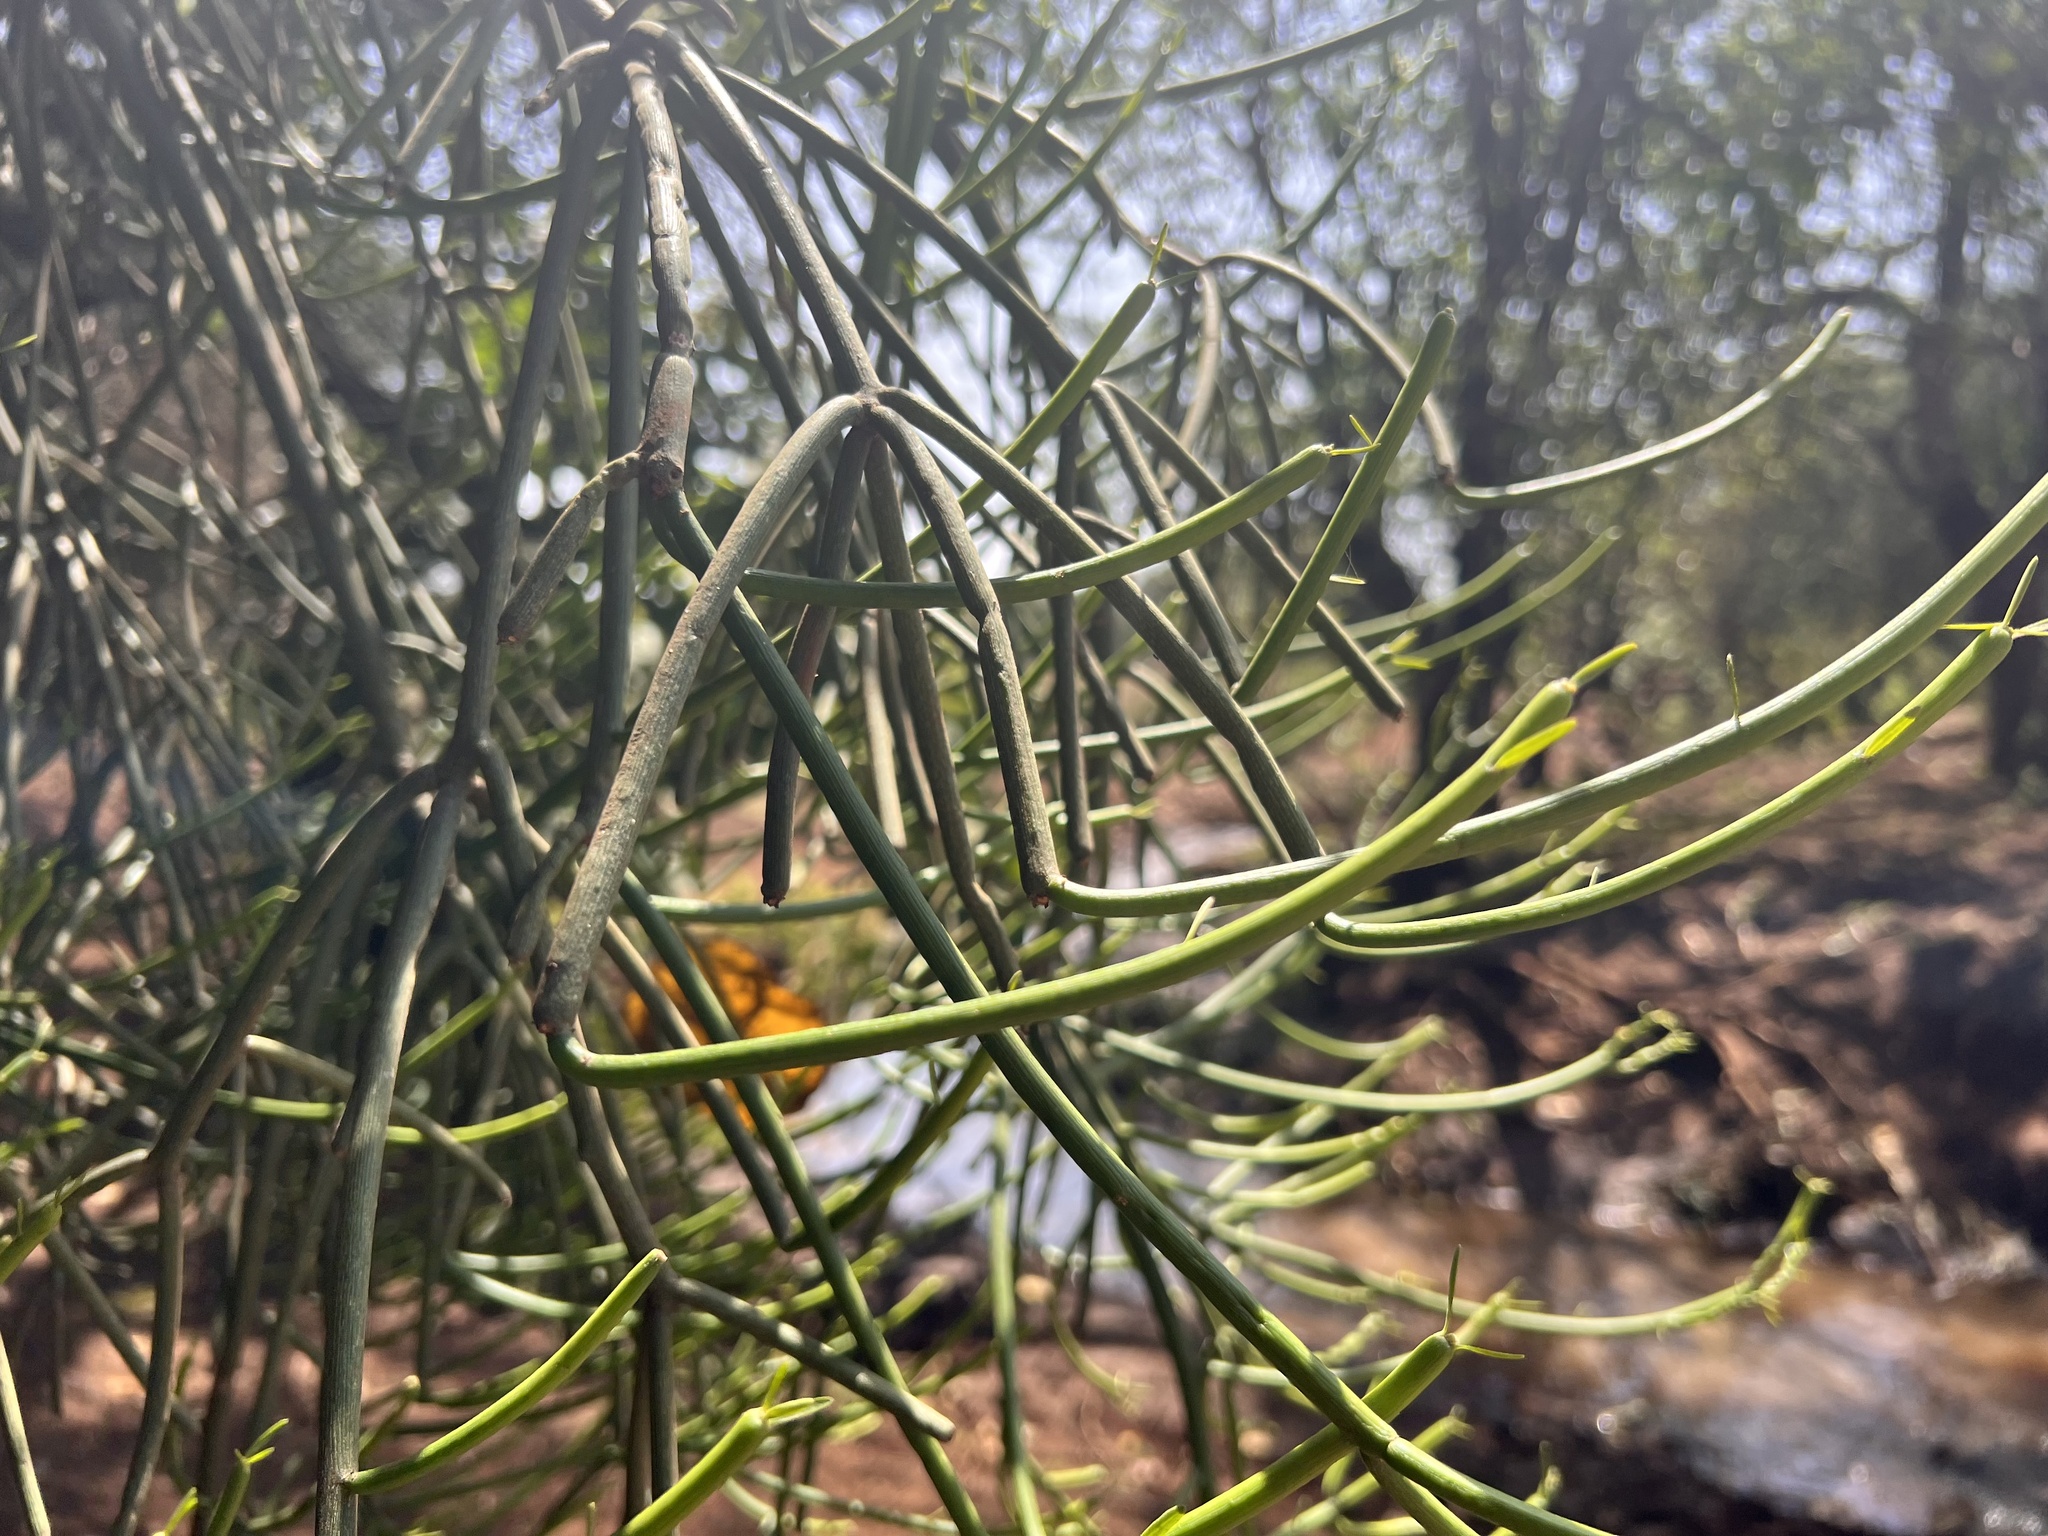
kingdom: Plantae
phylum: Tracheophyta
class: Magnoliopsida
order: Malpighiales
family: Euphorbiaceae
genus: Euphorbia
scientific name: Euphorbia tirucalli
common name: Indiantree spurge
